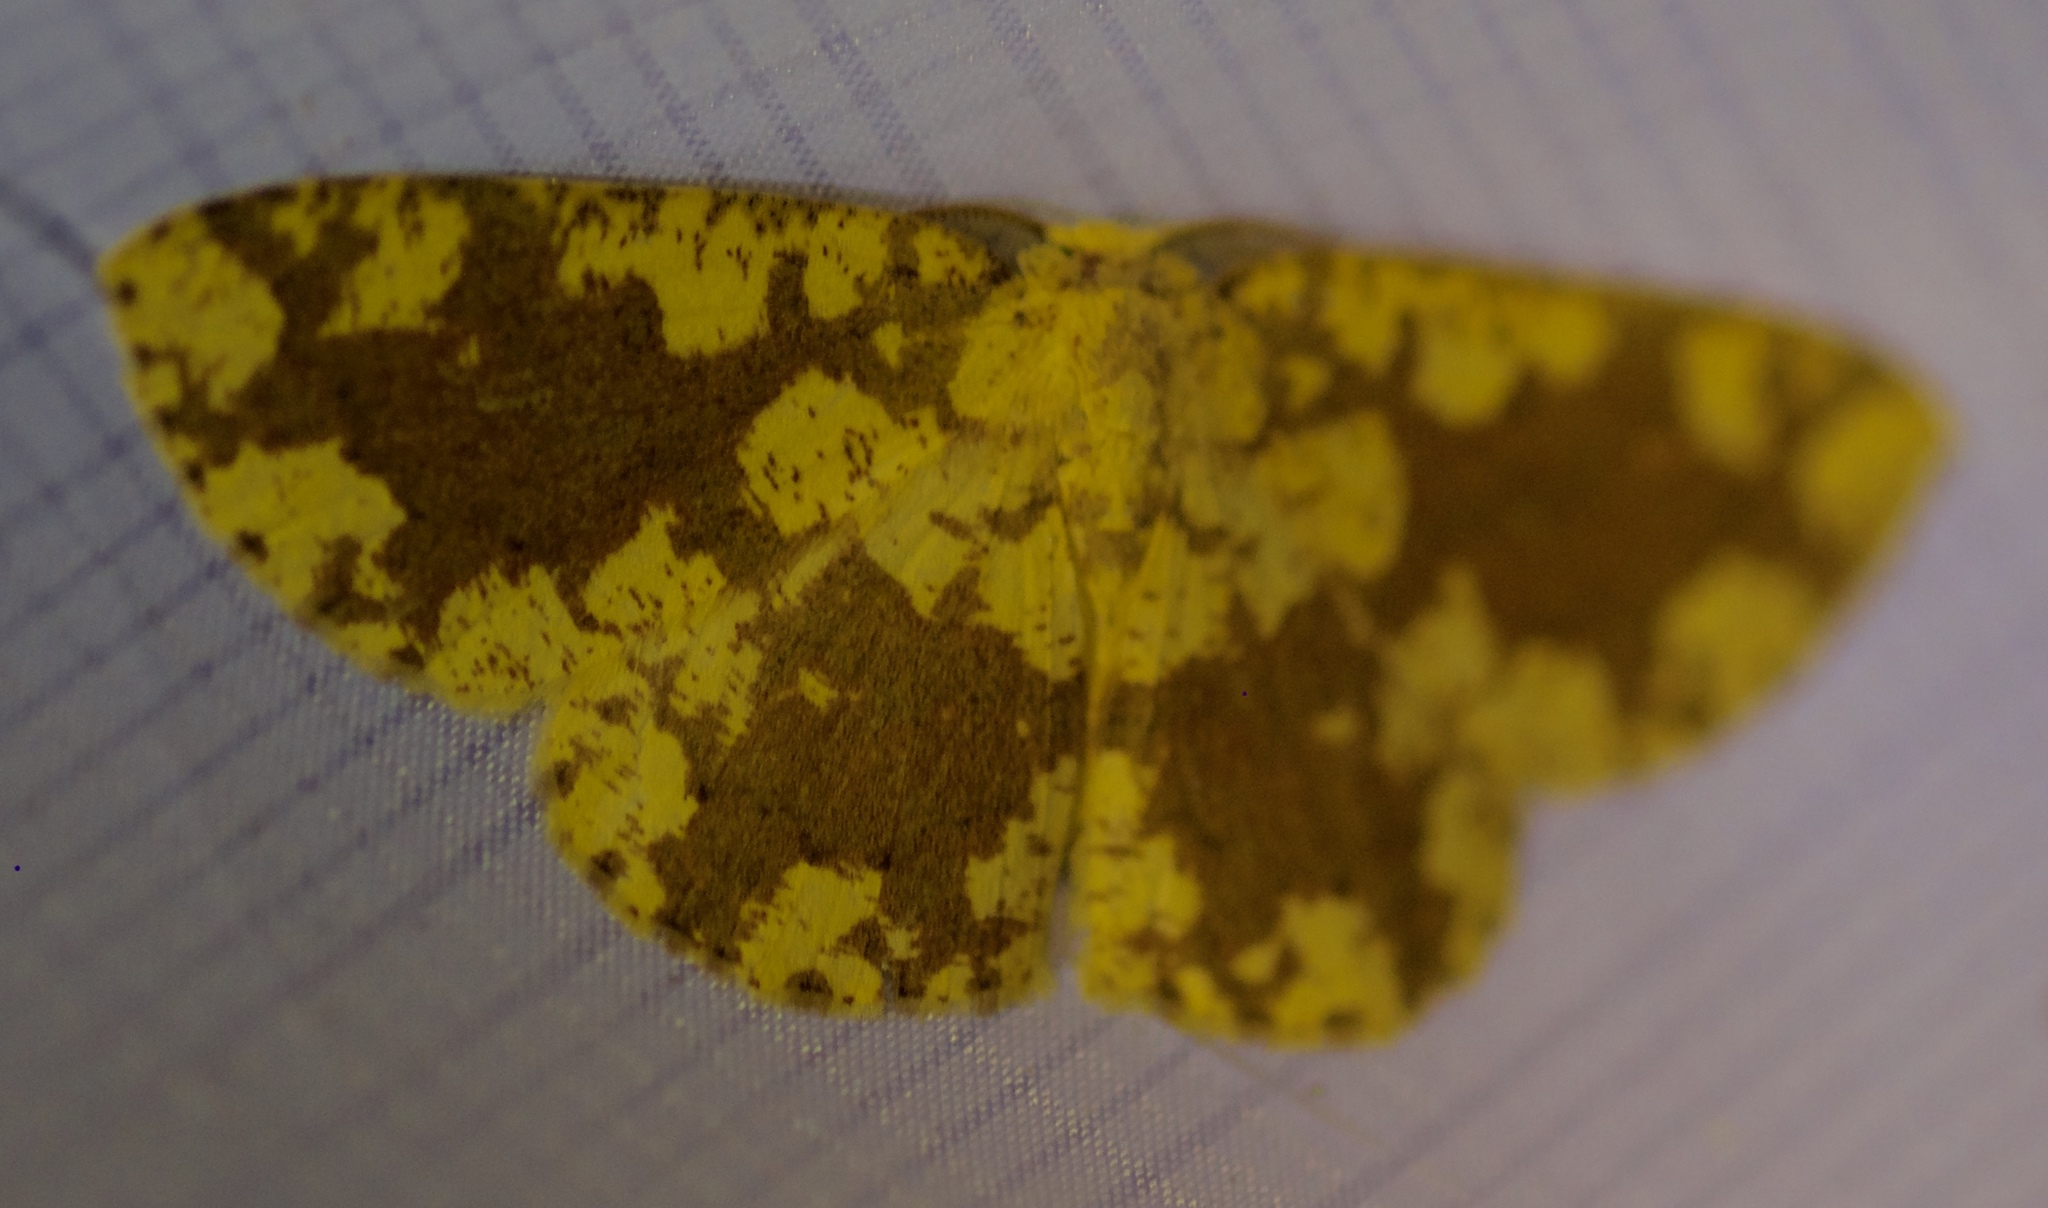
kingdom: Animalia
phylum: Arthropoda
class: Insecta
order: Lepidoptera
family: Geometridae
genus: Cyclophora
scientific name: Cyclophora circummaculata
